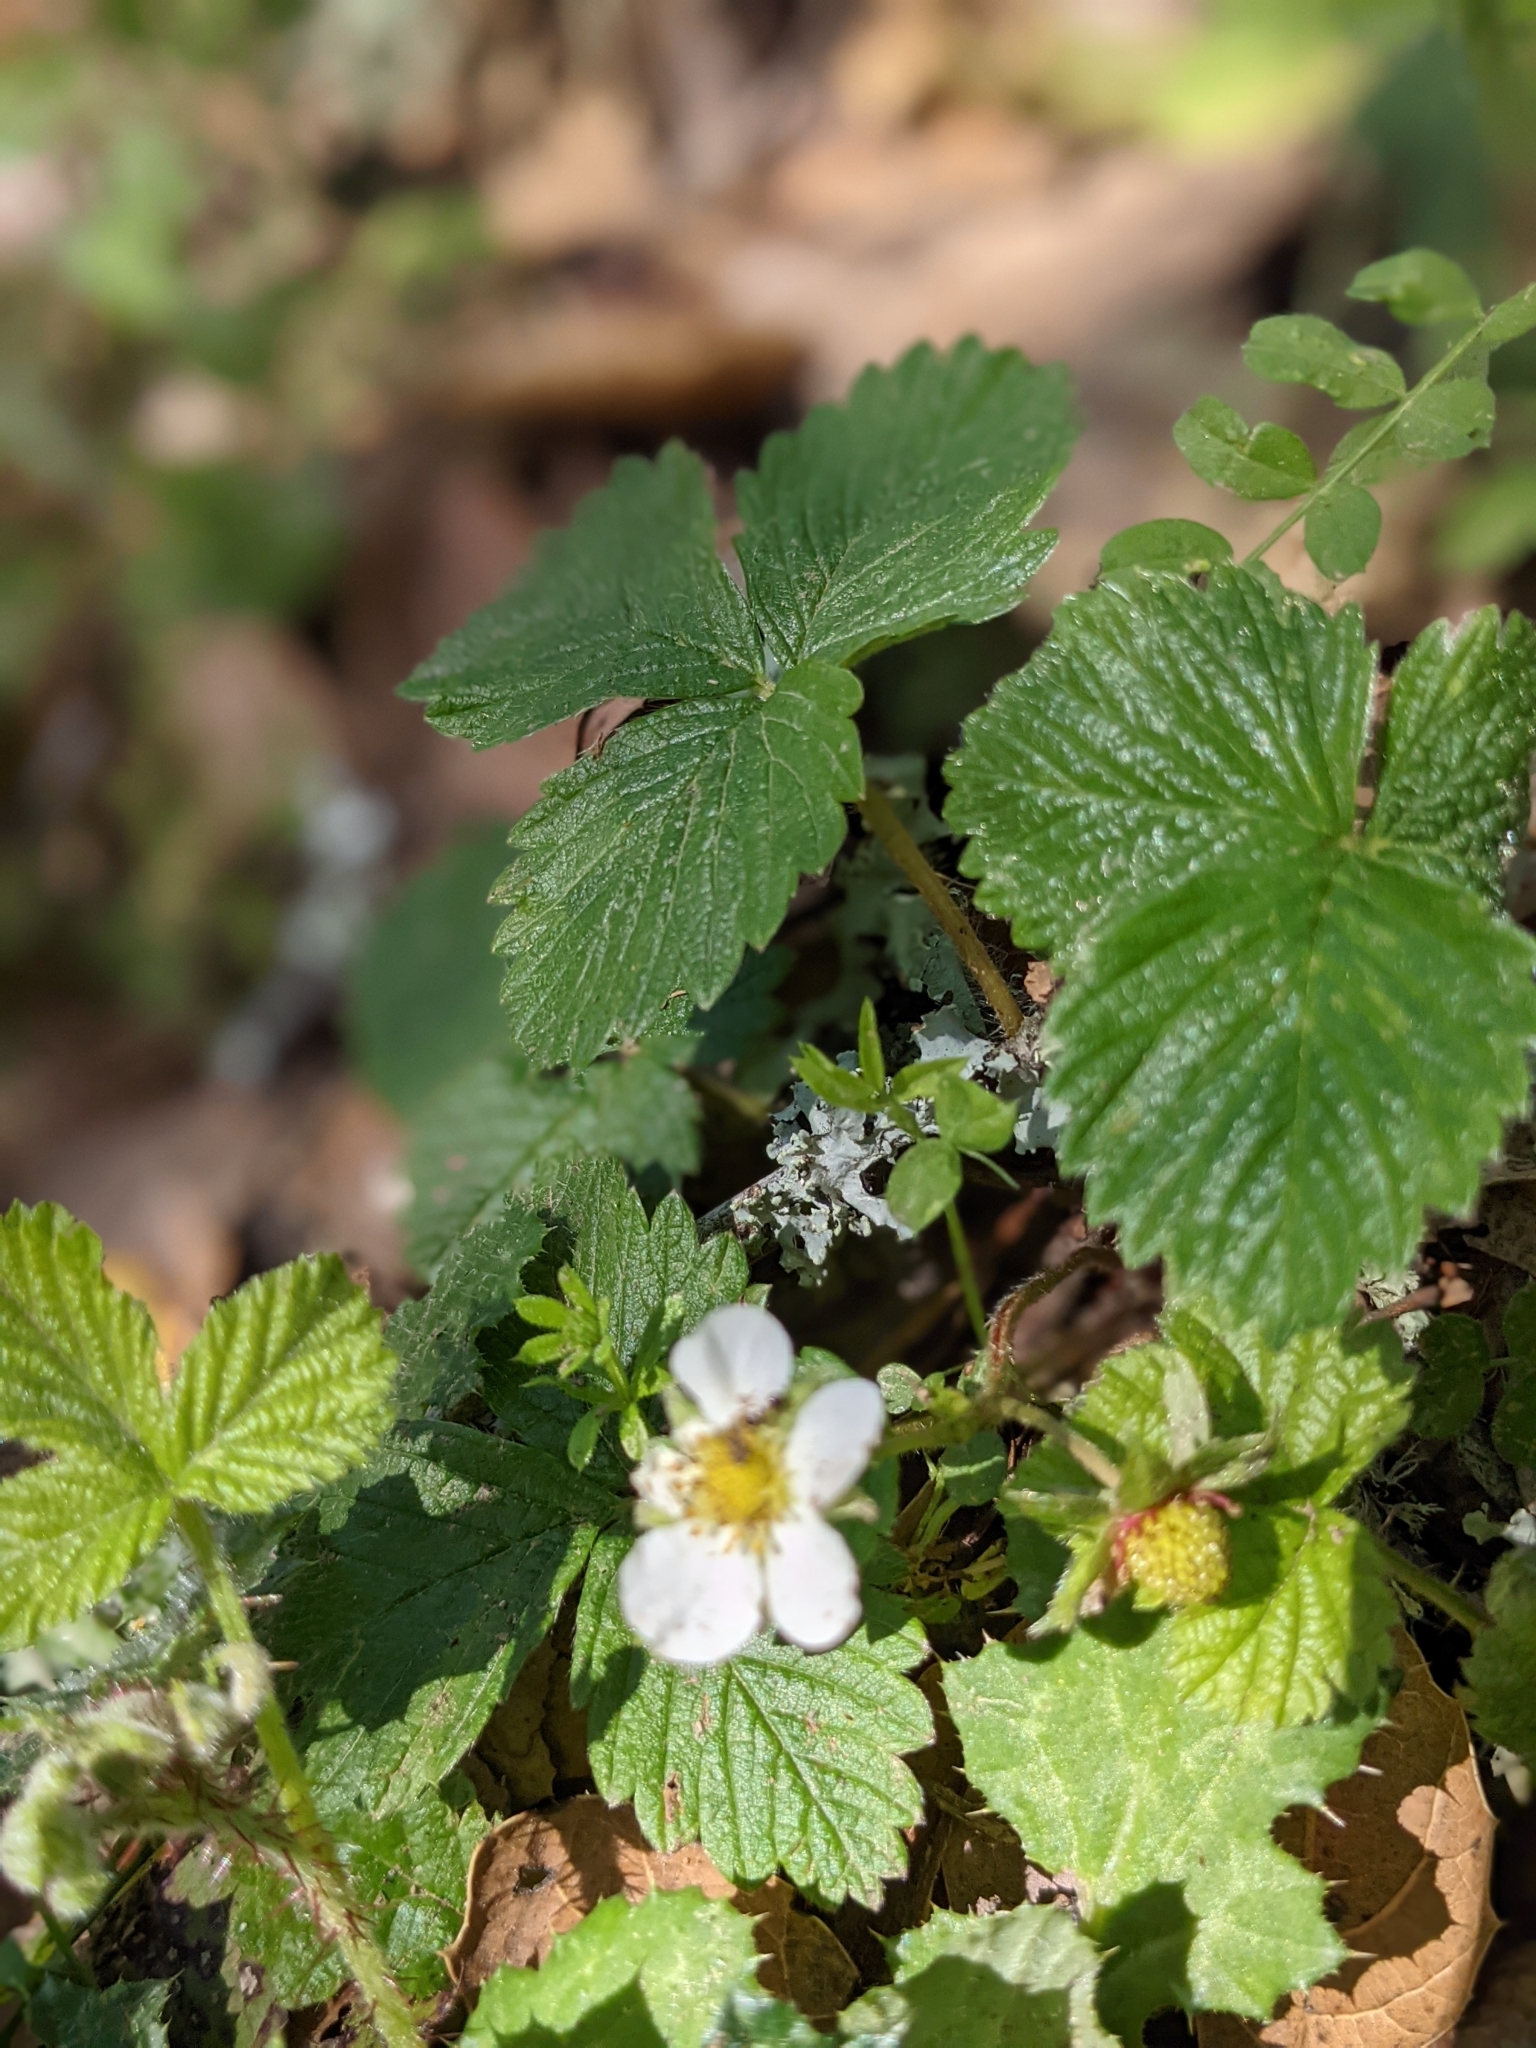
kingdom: Plantae
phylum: Tracheophyta
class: Magnoliopsida
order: Rosales
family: Rosaceae
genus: Fragaria
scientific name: Fragaria vesca
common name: Wild strawberry
